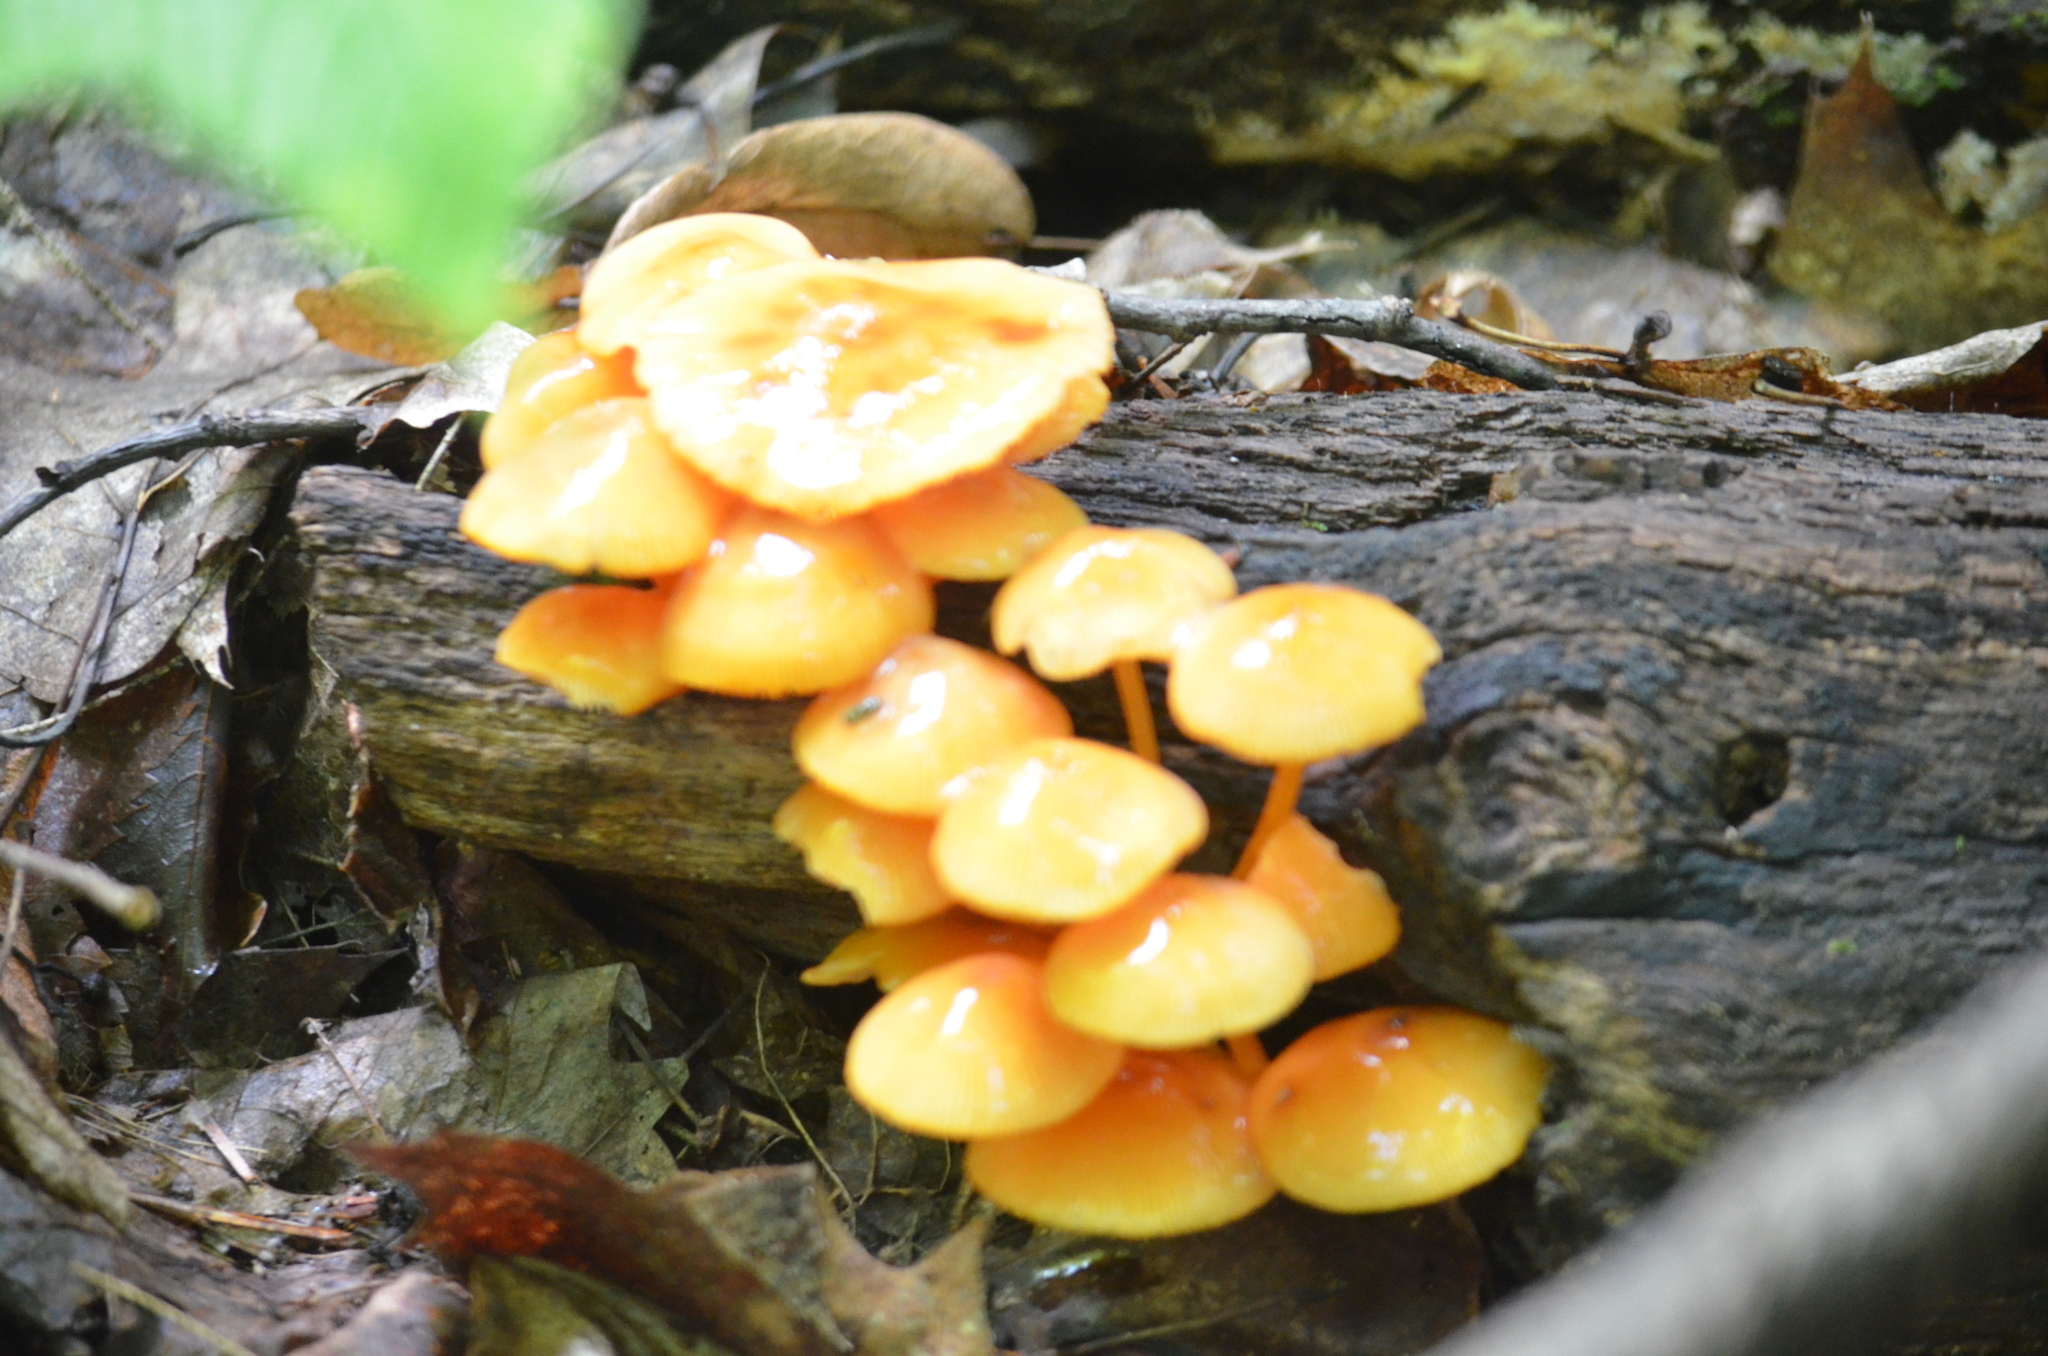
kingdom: Fungi
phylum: Basidiomycota
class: Agaricomycetes
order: Agaricales
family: Mycenaceae
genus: Mycena
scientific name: Mycena leaiana
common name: Orange mycena
